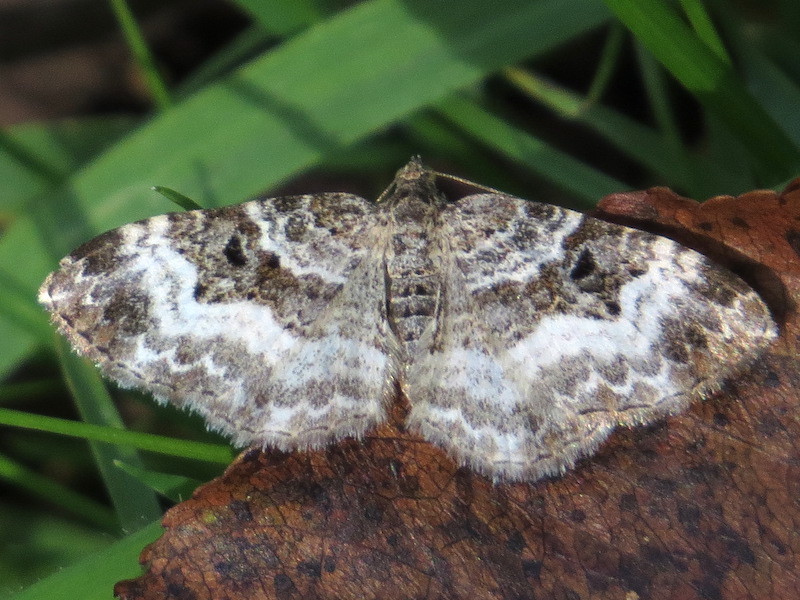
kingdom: Animalia
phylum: Arthropoda
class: Insecta
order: Lepidoptera
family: Geometridae
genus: Epirrhoe
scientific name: Epirrhoe alternata
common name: Common carpet
